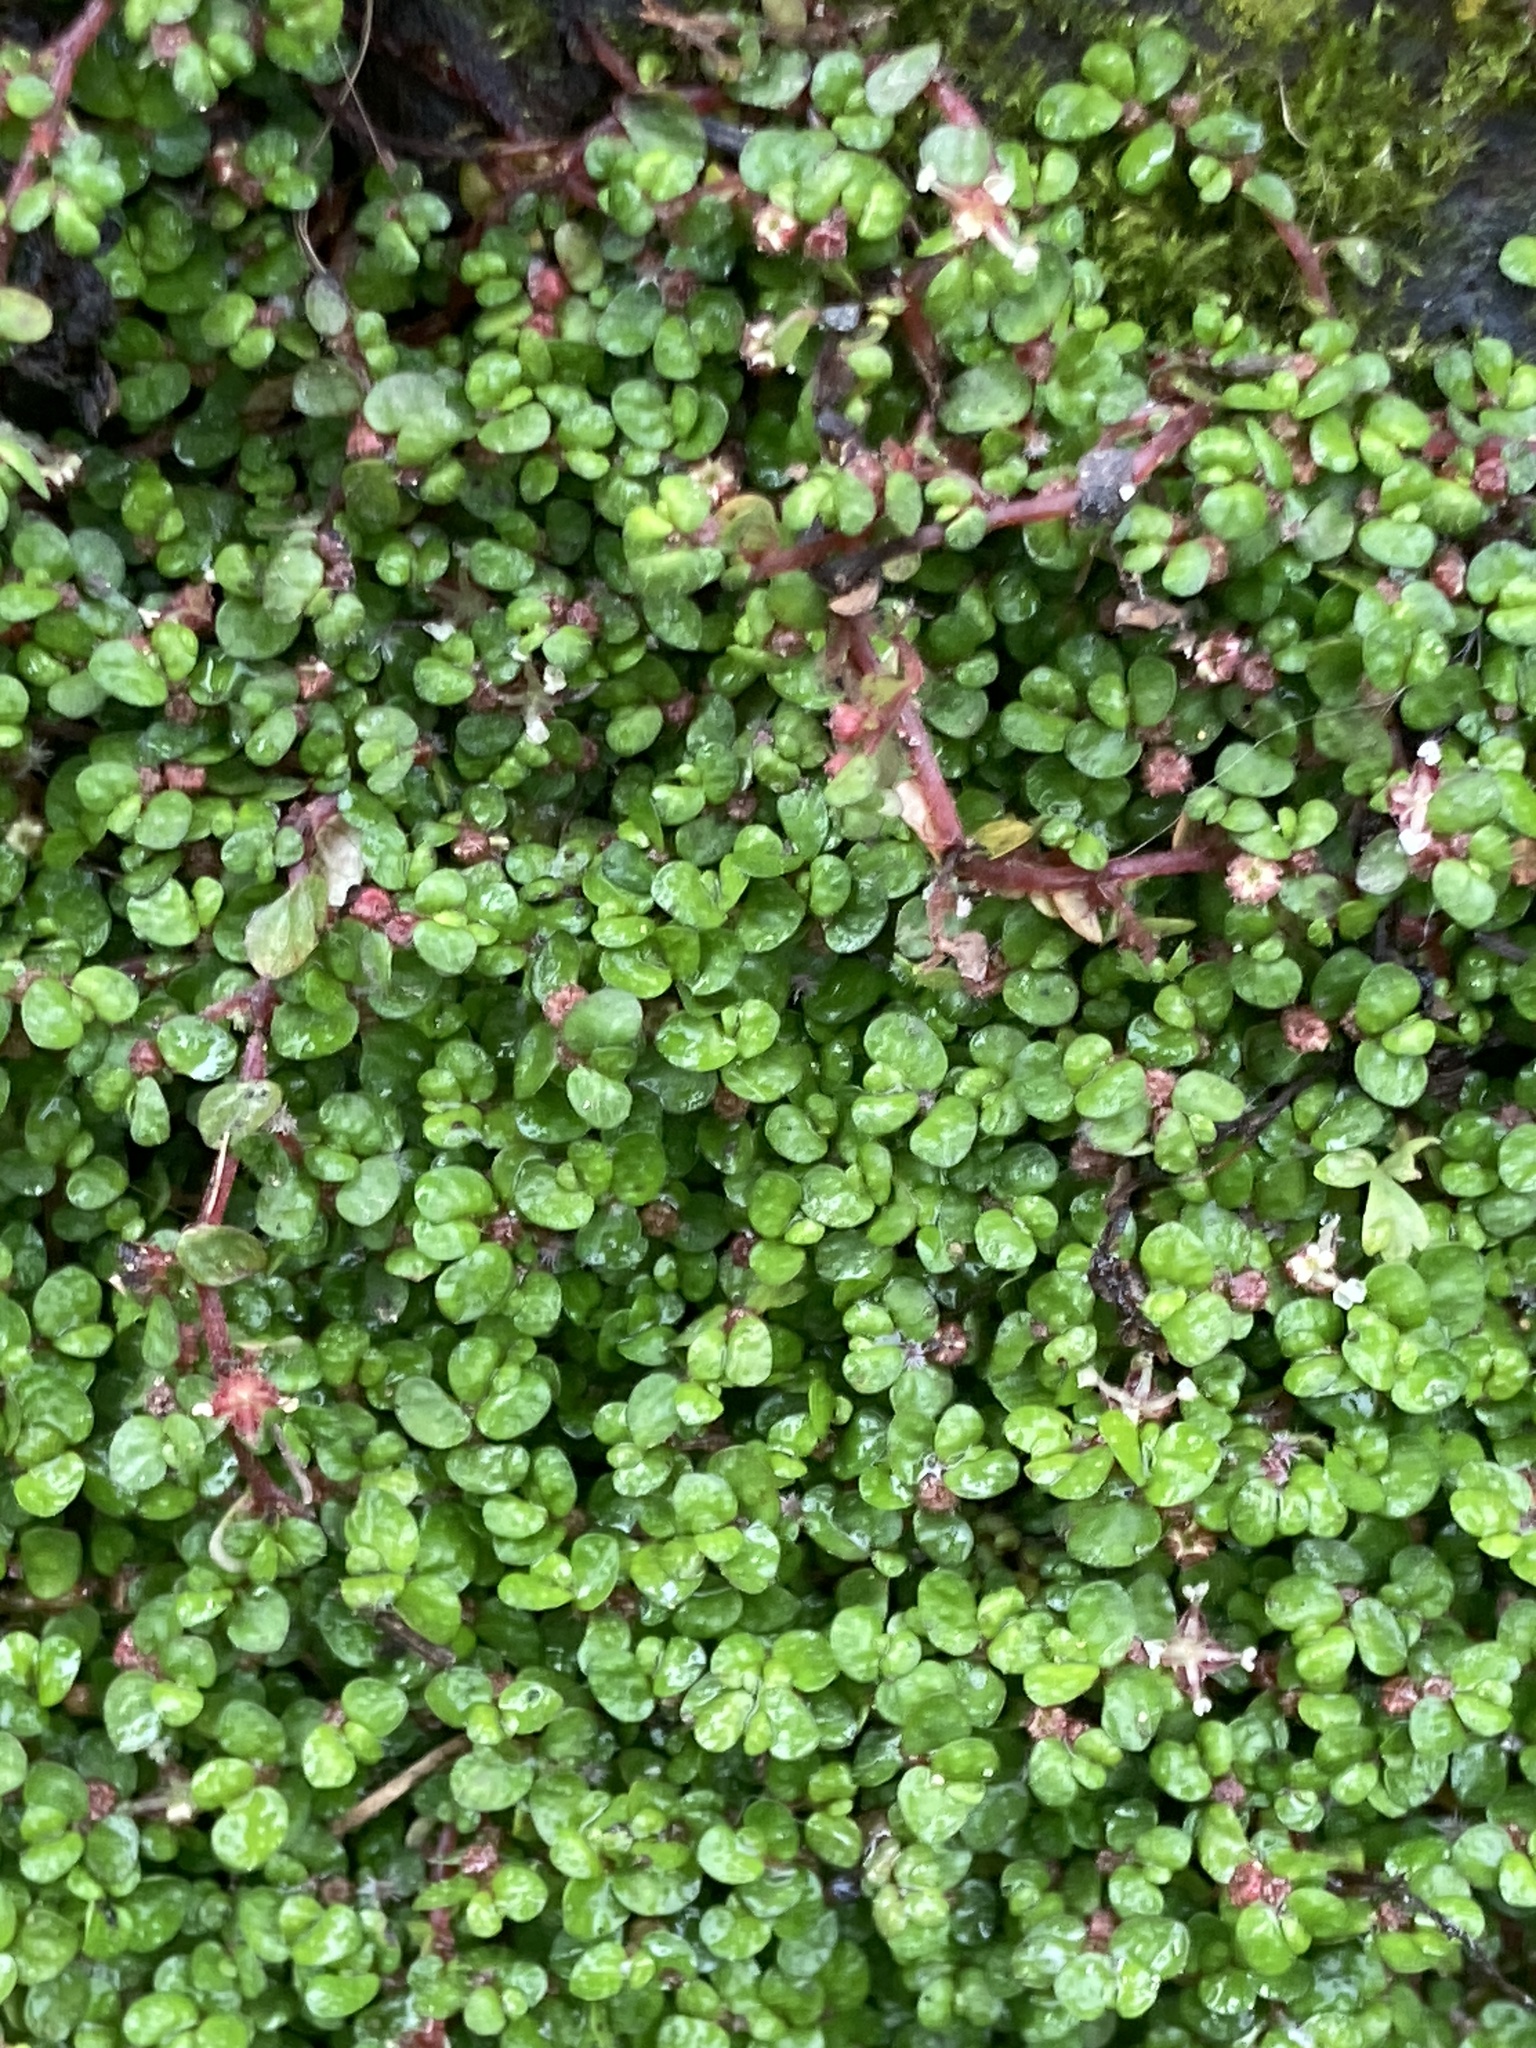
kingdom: Plantae
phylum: Tracheophyta
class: Magnoliopsida
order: Rosales
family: Urticaceae
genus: Soleirolia
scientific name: Soleirolia soleirolii
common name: Mind-your-own-business
